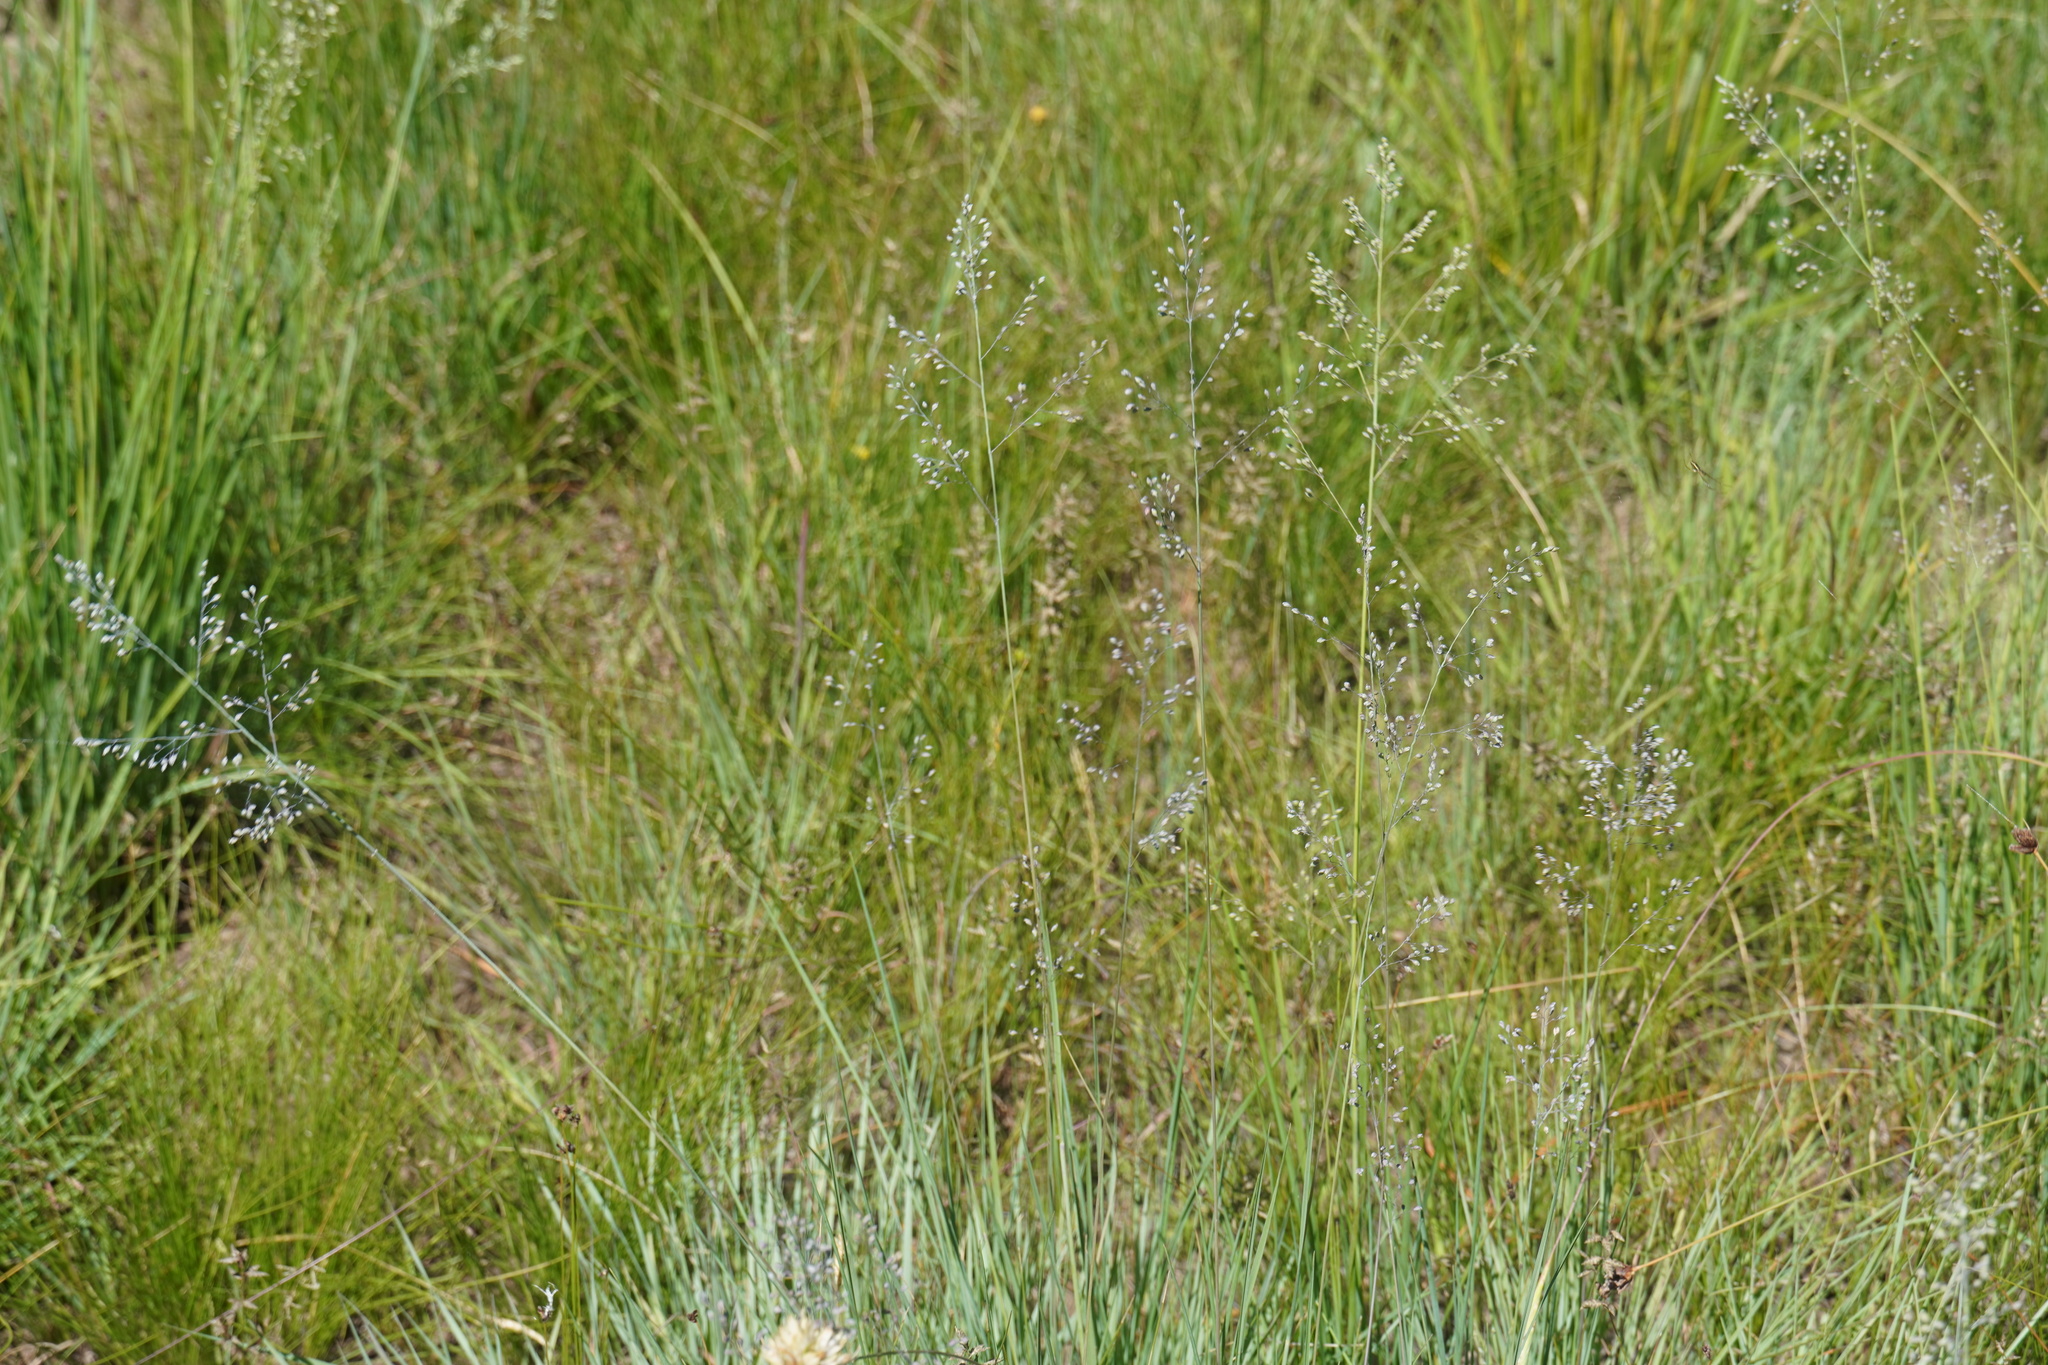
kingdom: Plantae
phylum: Tracheophyta
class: Liliopsida
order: Poales
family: Poaceae
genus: Trichanthecium
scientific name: Trichanthecium natalense
